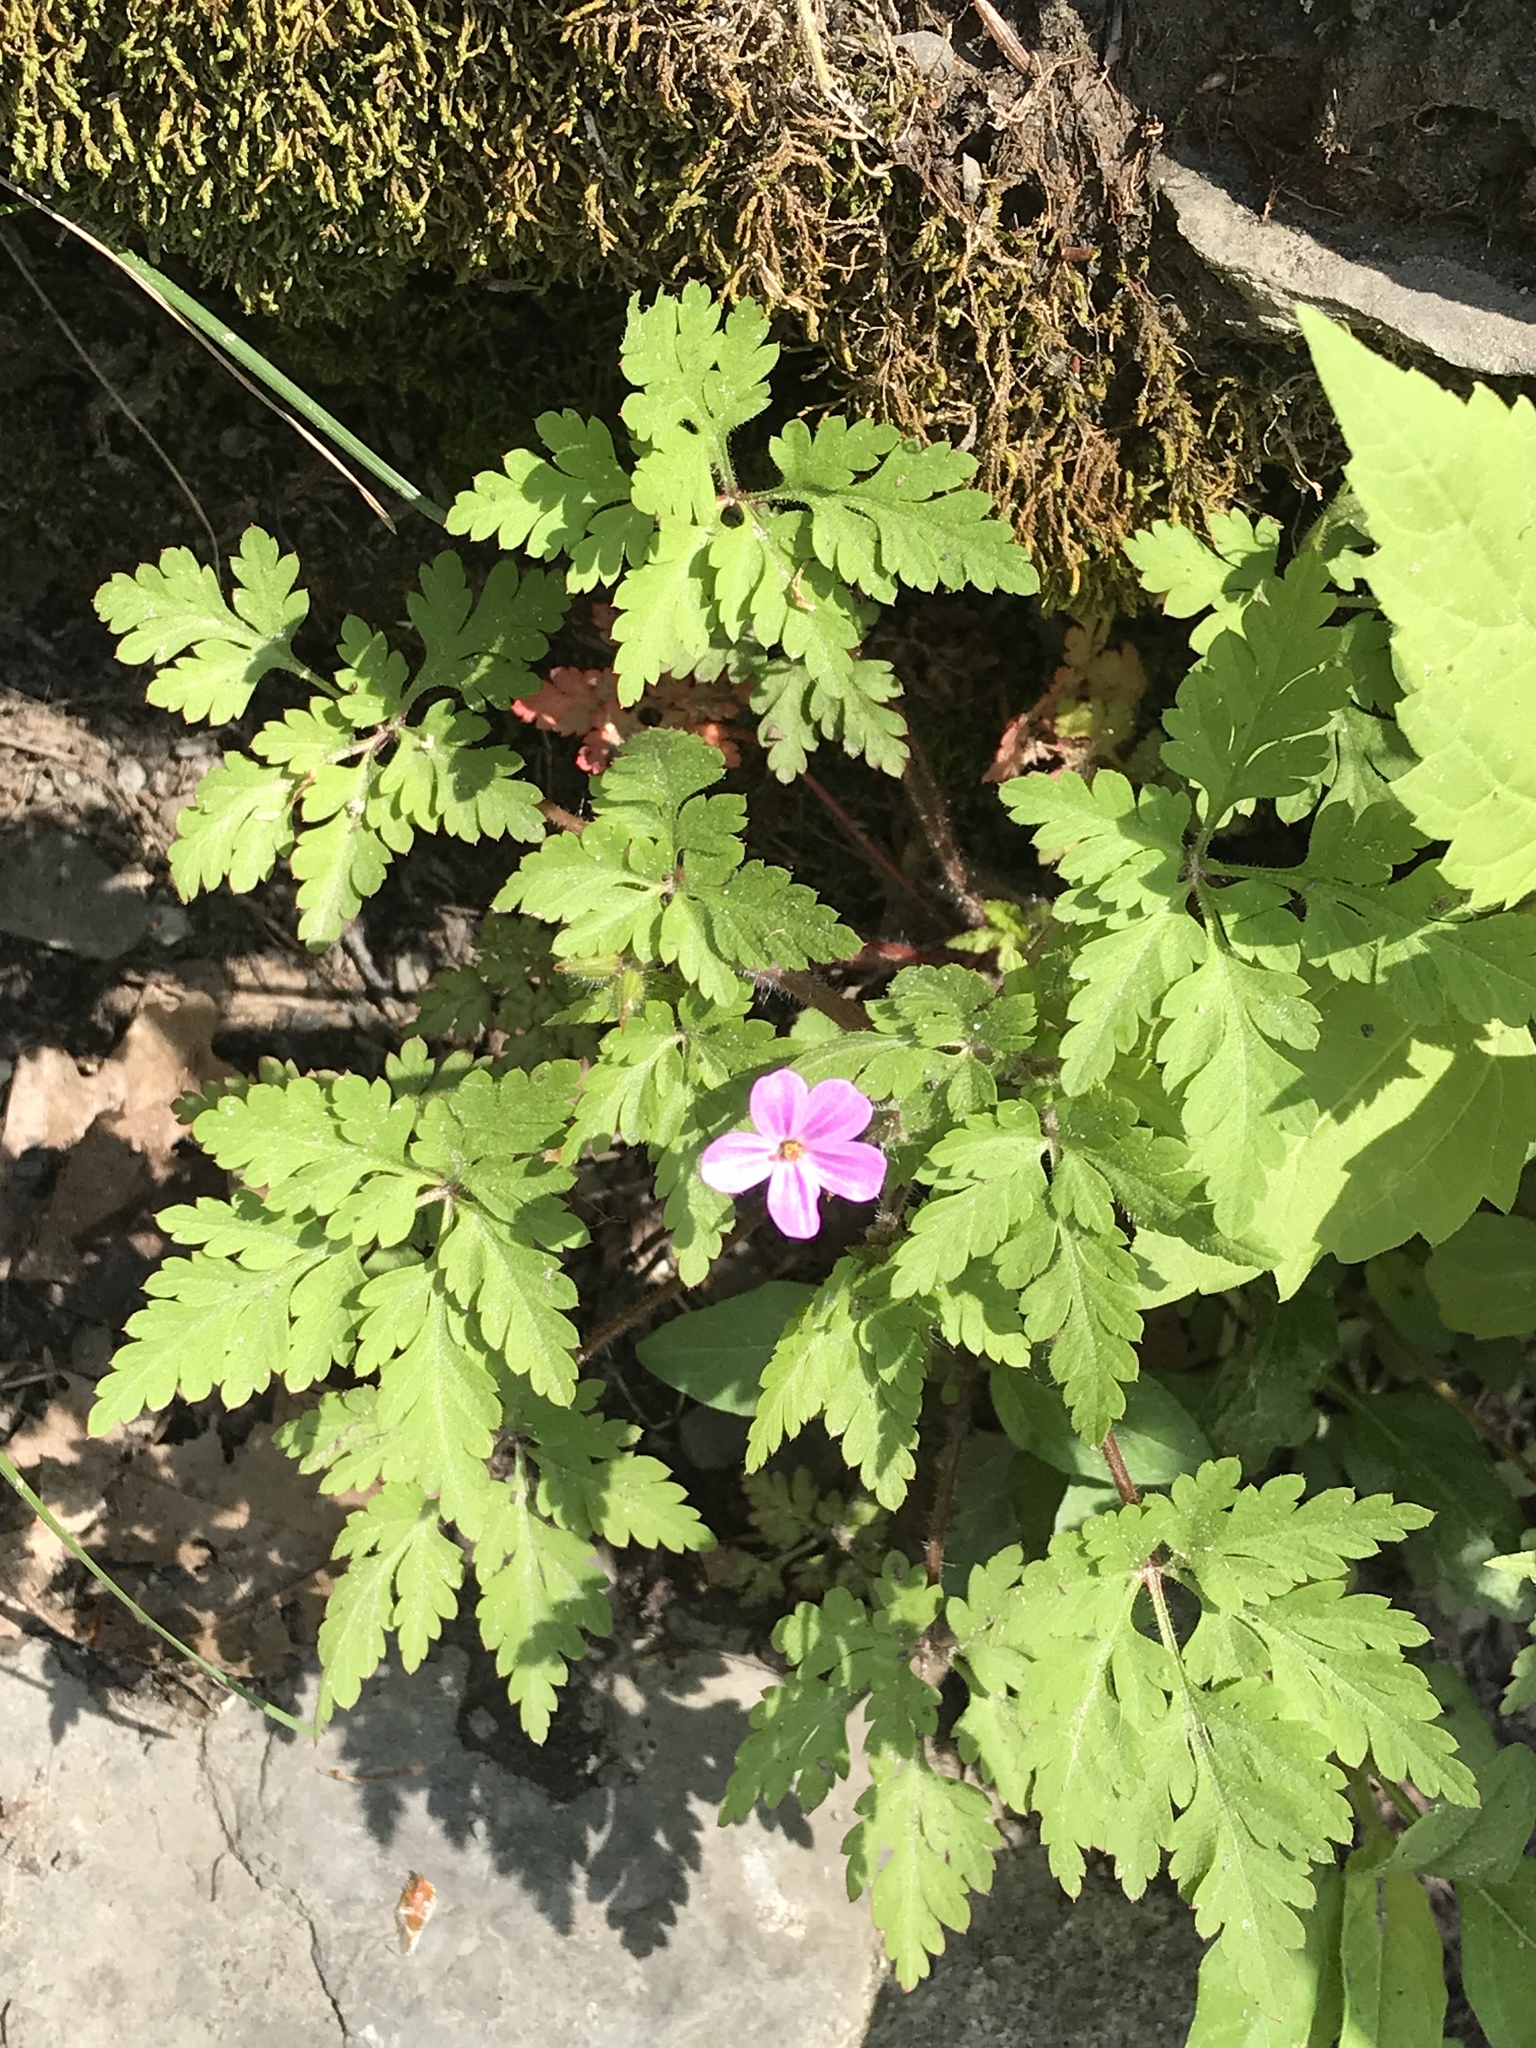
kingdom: Plantae
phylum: Tracheophyta
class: Magnoliopsida
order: Geraniales
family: Geraniaceae
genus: Geranium
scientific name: Geranium robertianum
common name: Herb-robert
